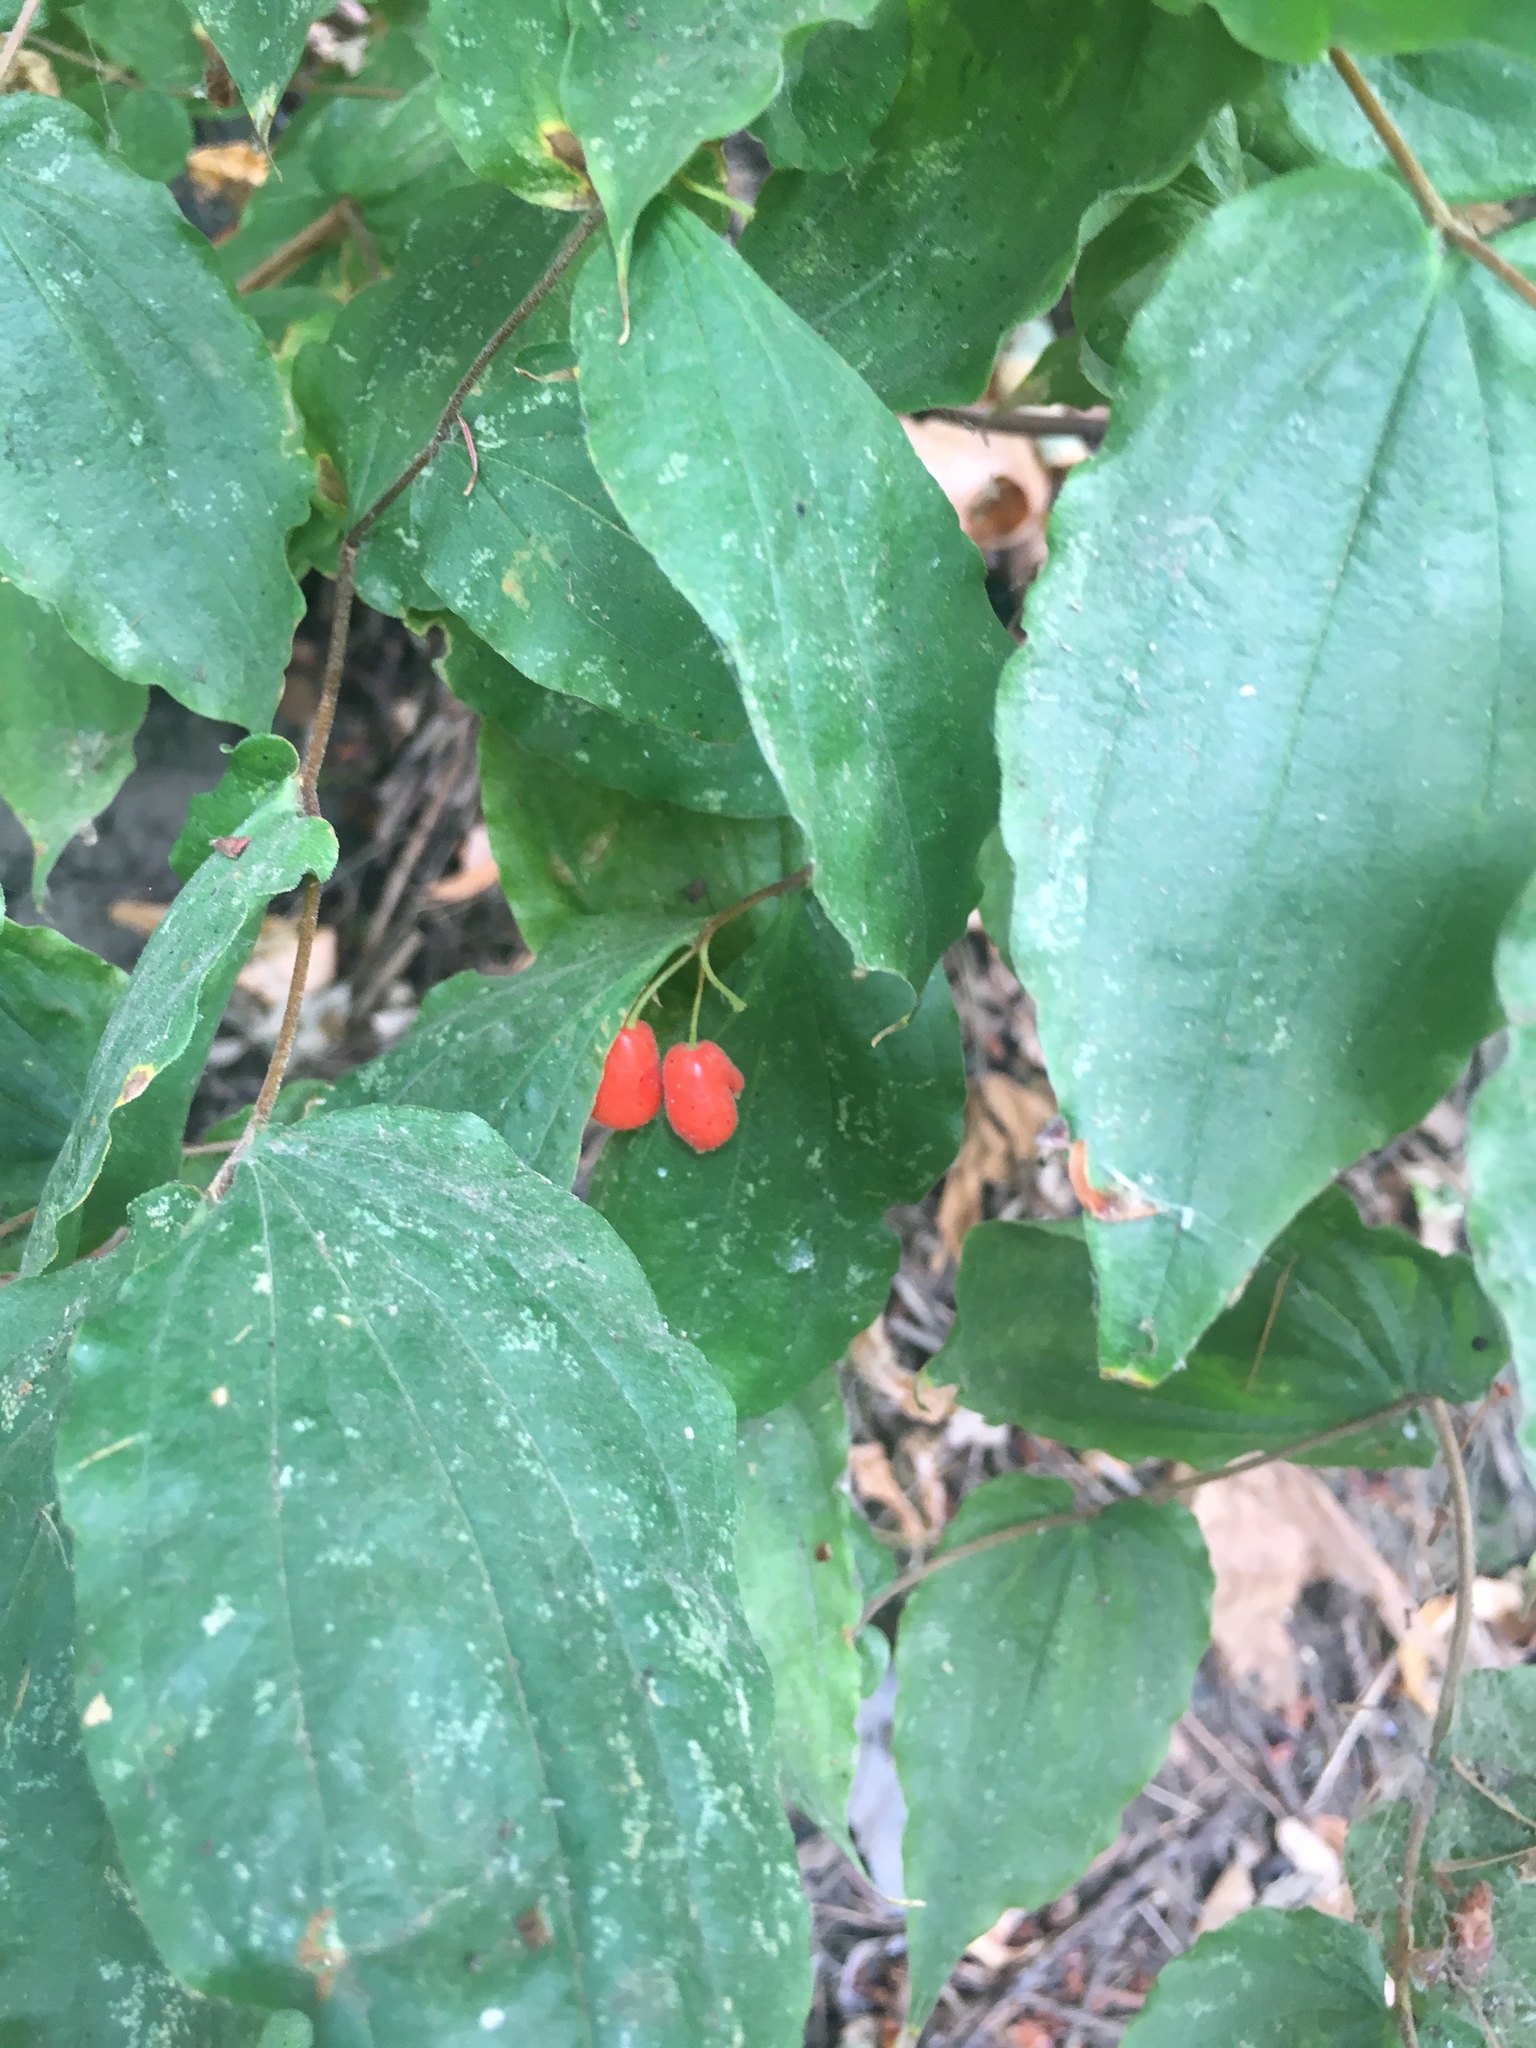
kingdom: Plantae
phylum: Tracheophyta
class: Liliopsida
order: Liliales
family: Liliaceae
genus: Prosartes
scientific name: Prosartes hookeri
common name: Fairy-bells
